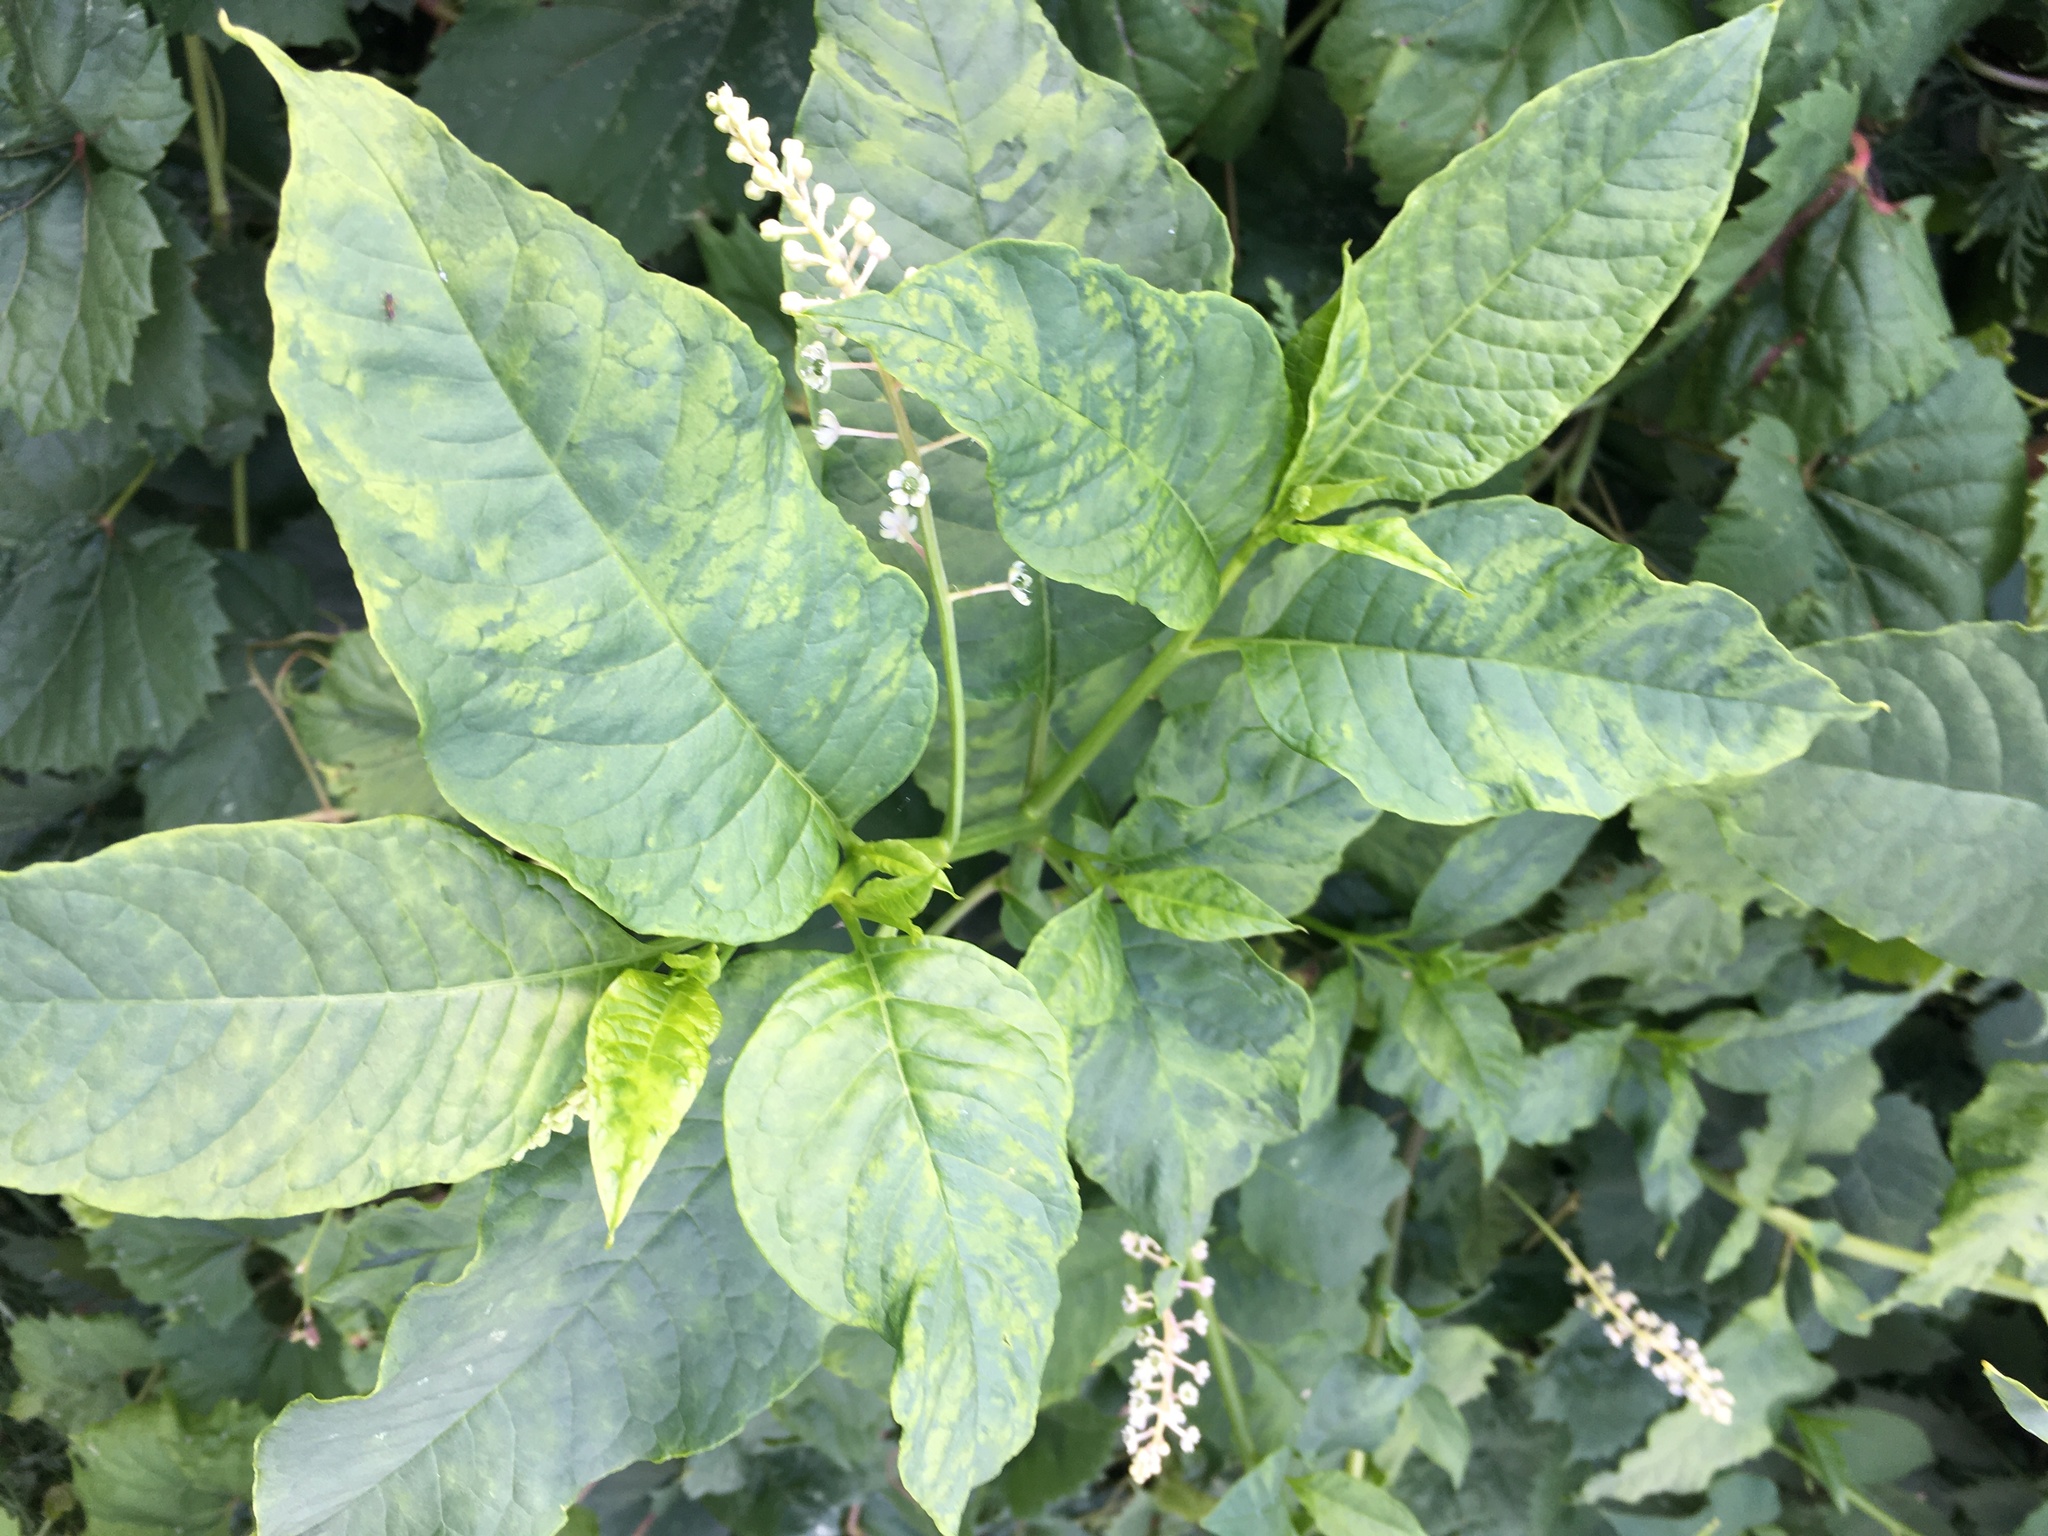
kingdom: Plantae
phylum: Tracheophyta
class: Magnoliopsida
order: Caryophyllales
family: Phytolaccaceae
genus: Phytolacca
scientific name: Phytolacca americana
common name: American pokeweed
